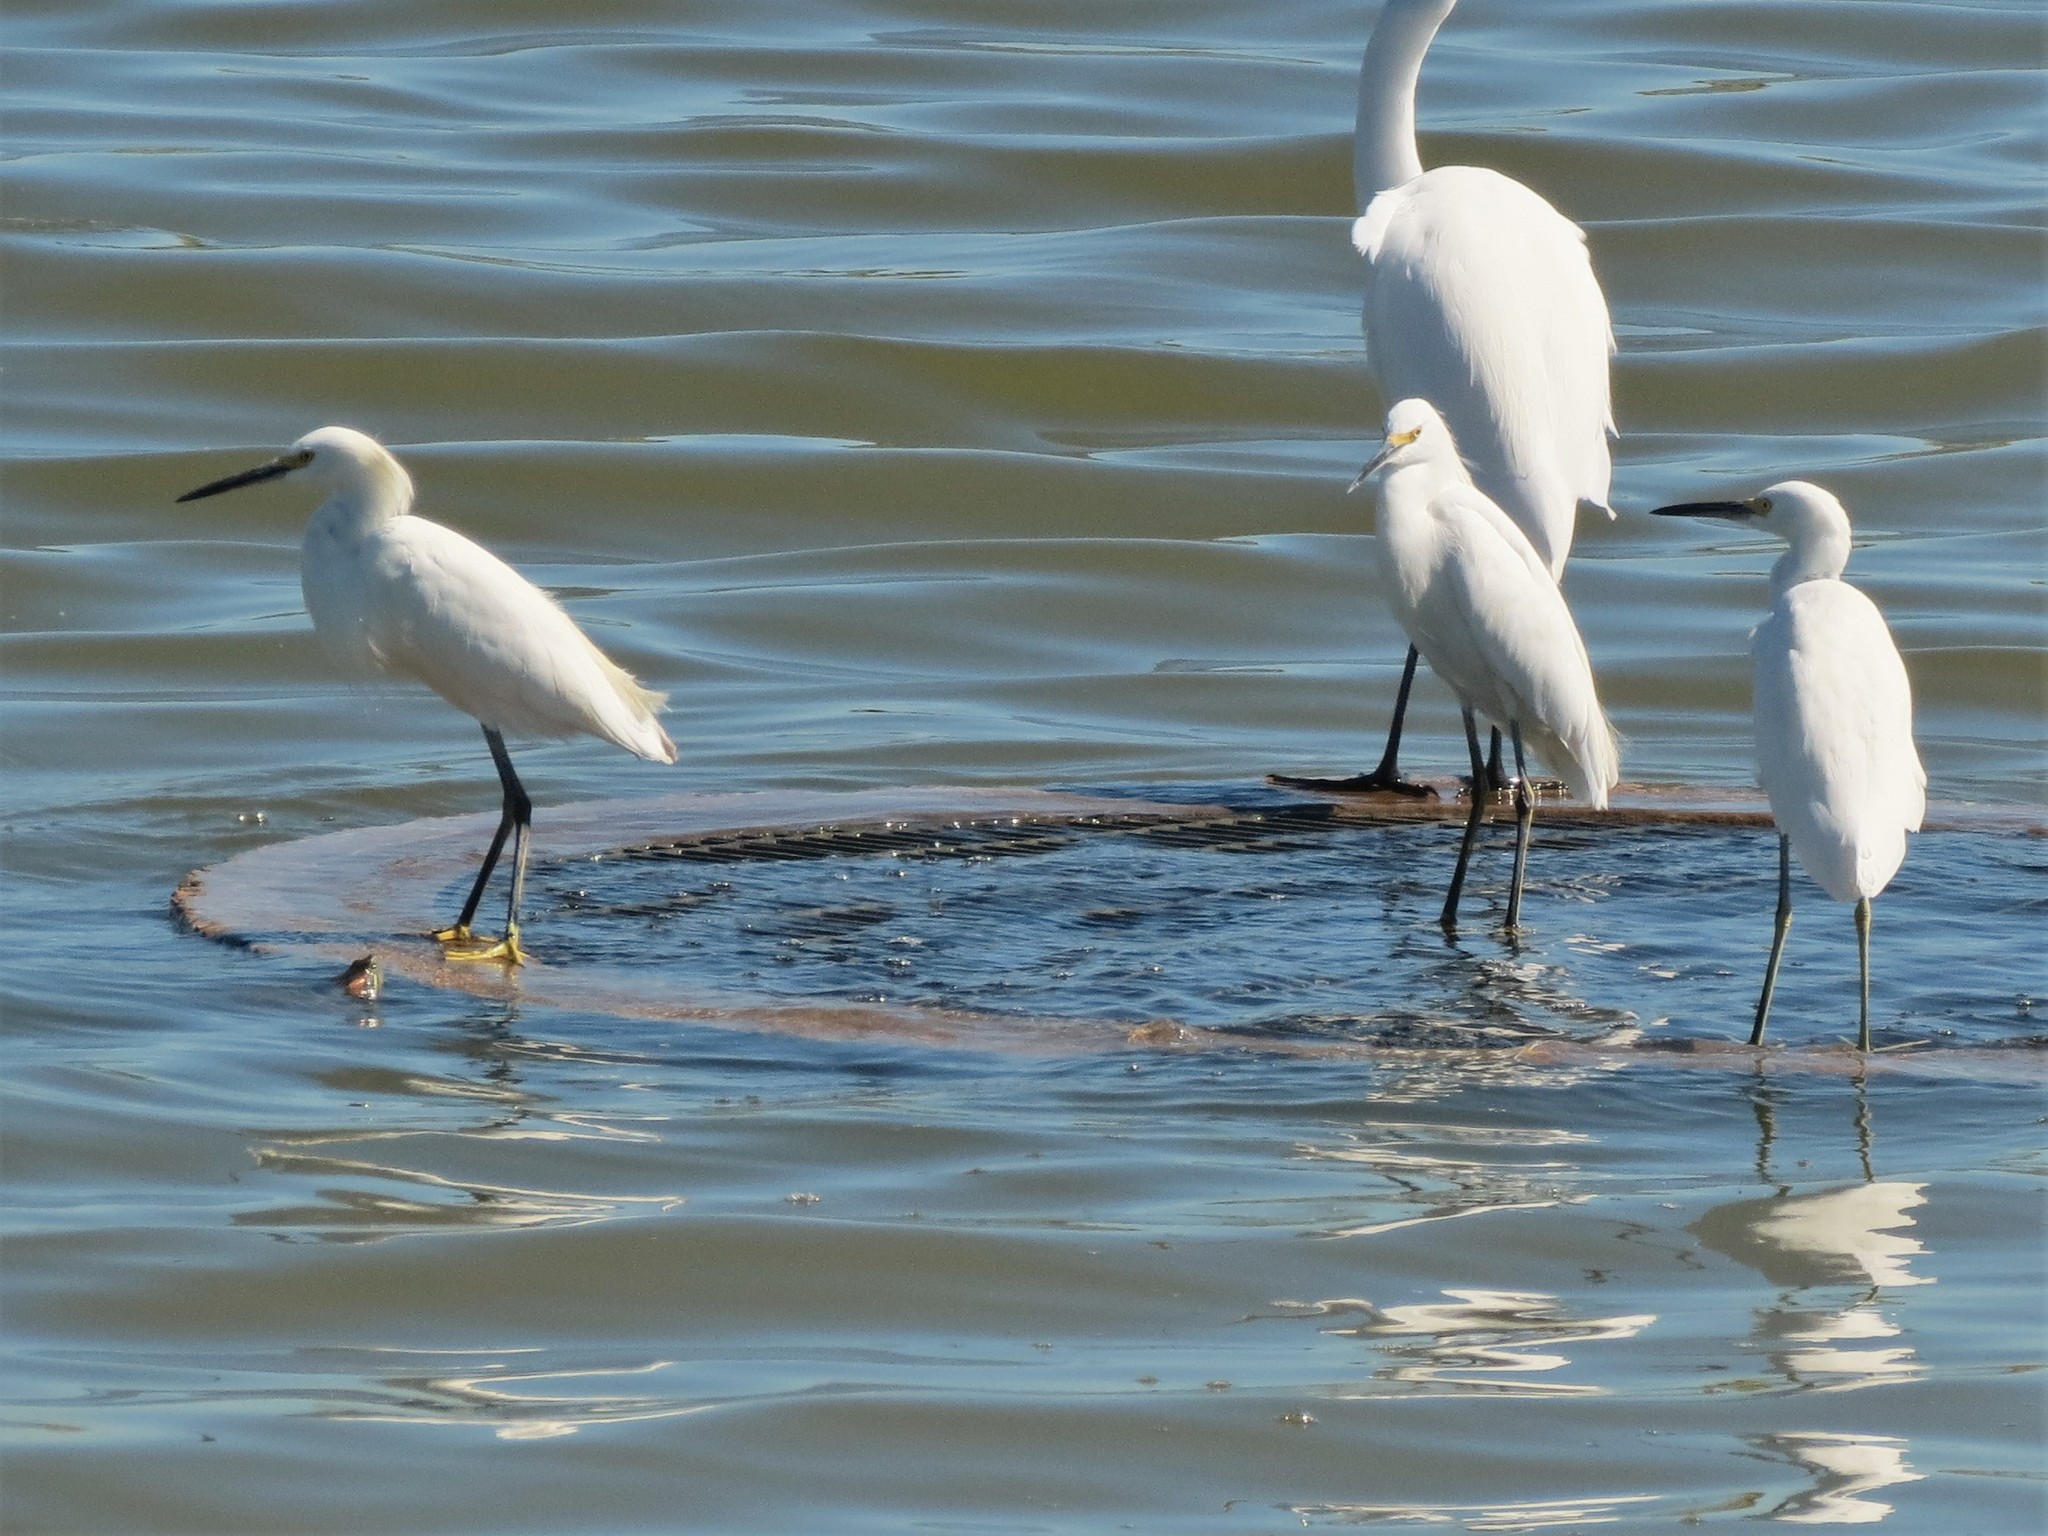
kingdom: Animalia
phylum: Chordata
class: Aves
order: Pelecaniformes
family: Ardeidae
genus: Egretta
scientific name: Egretta thula
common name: Snowy egret
